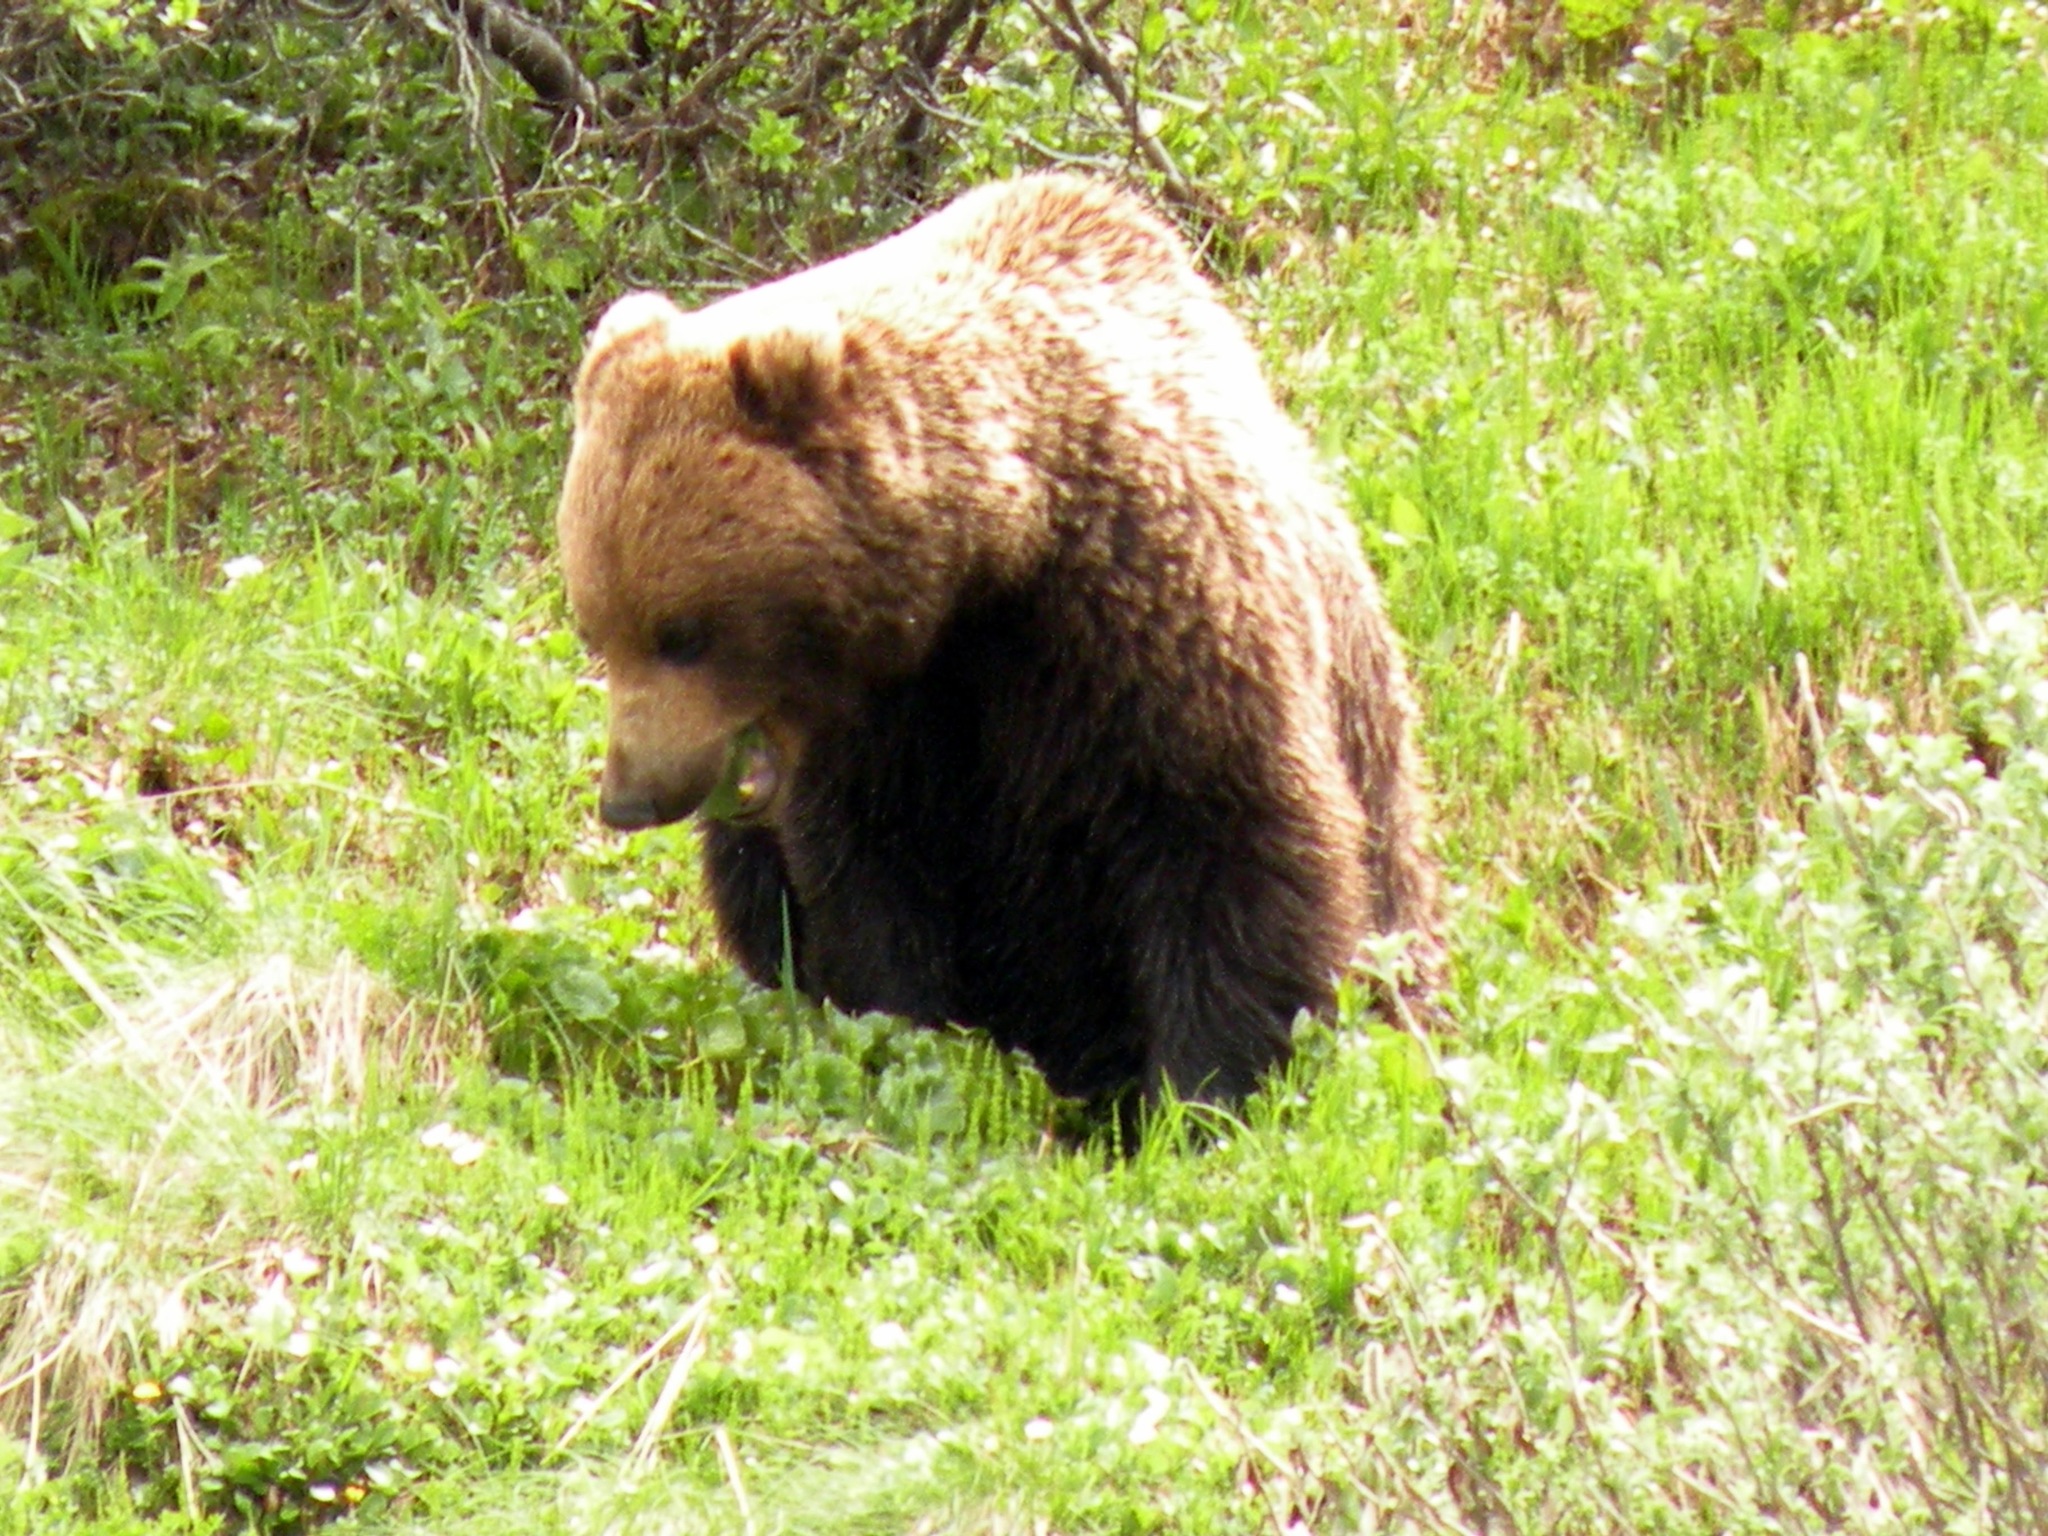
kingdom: Animalia
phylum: Chordata
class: Mammalia
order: Carnivora
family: Ursidae
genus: Ursus
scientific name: Ursus arctos
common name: Brown bear
